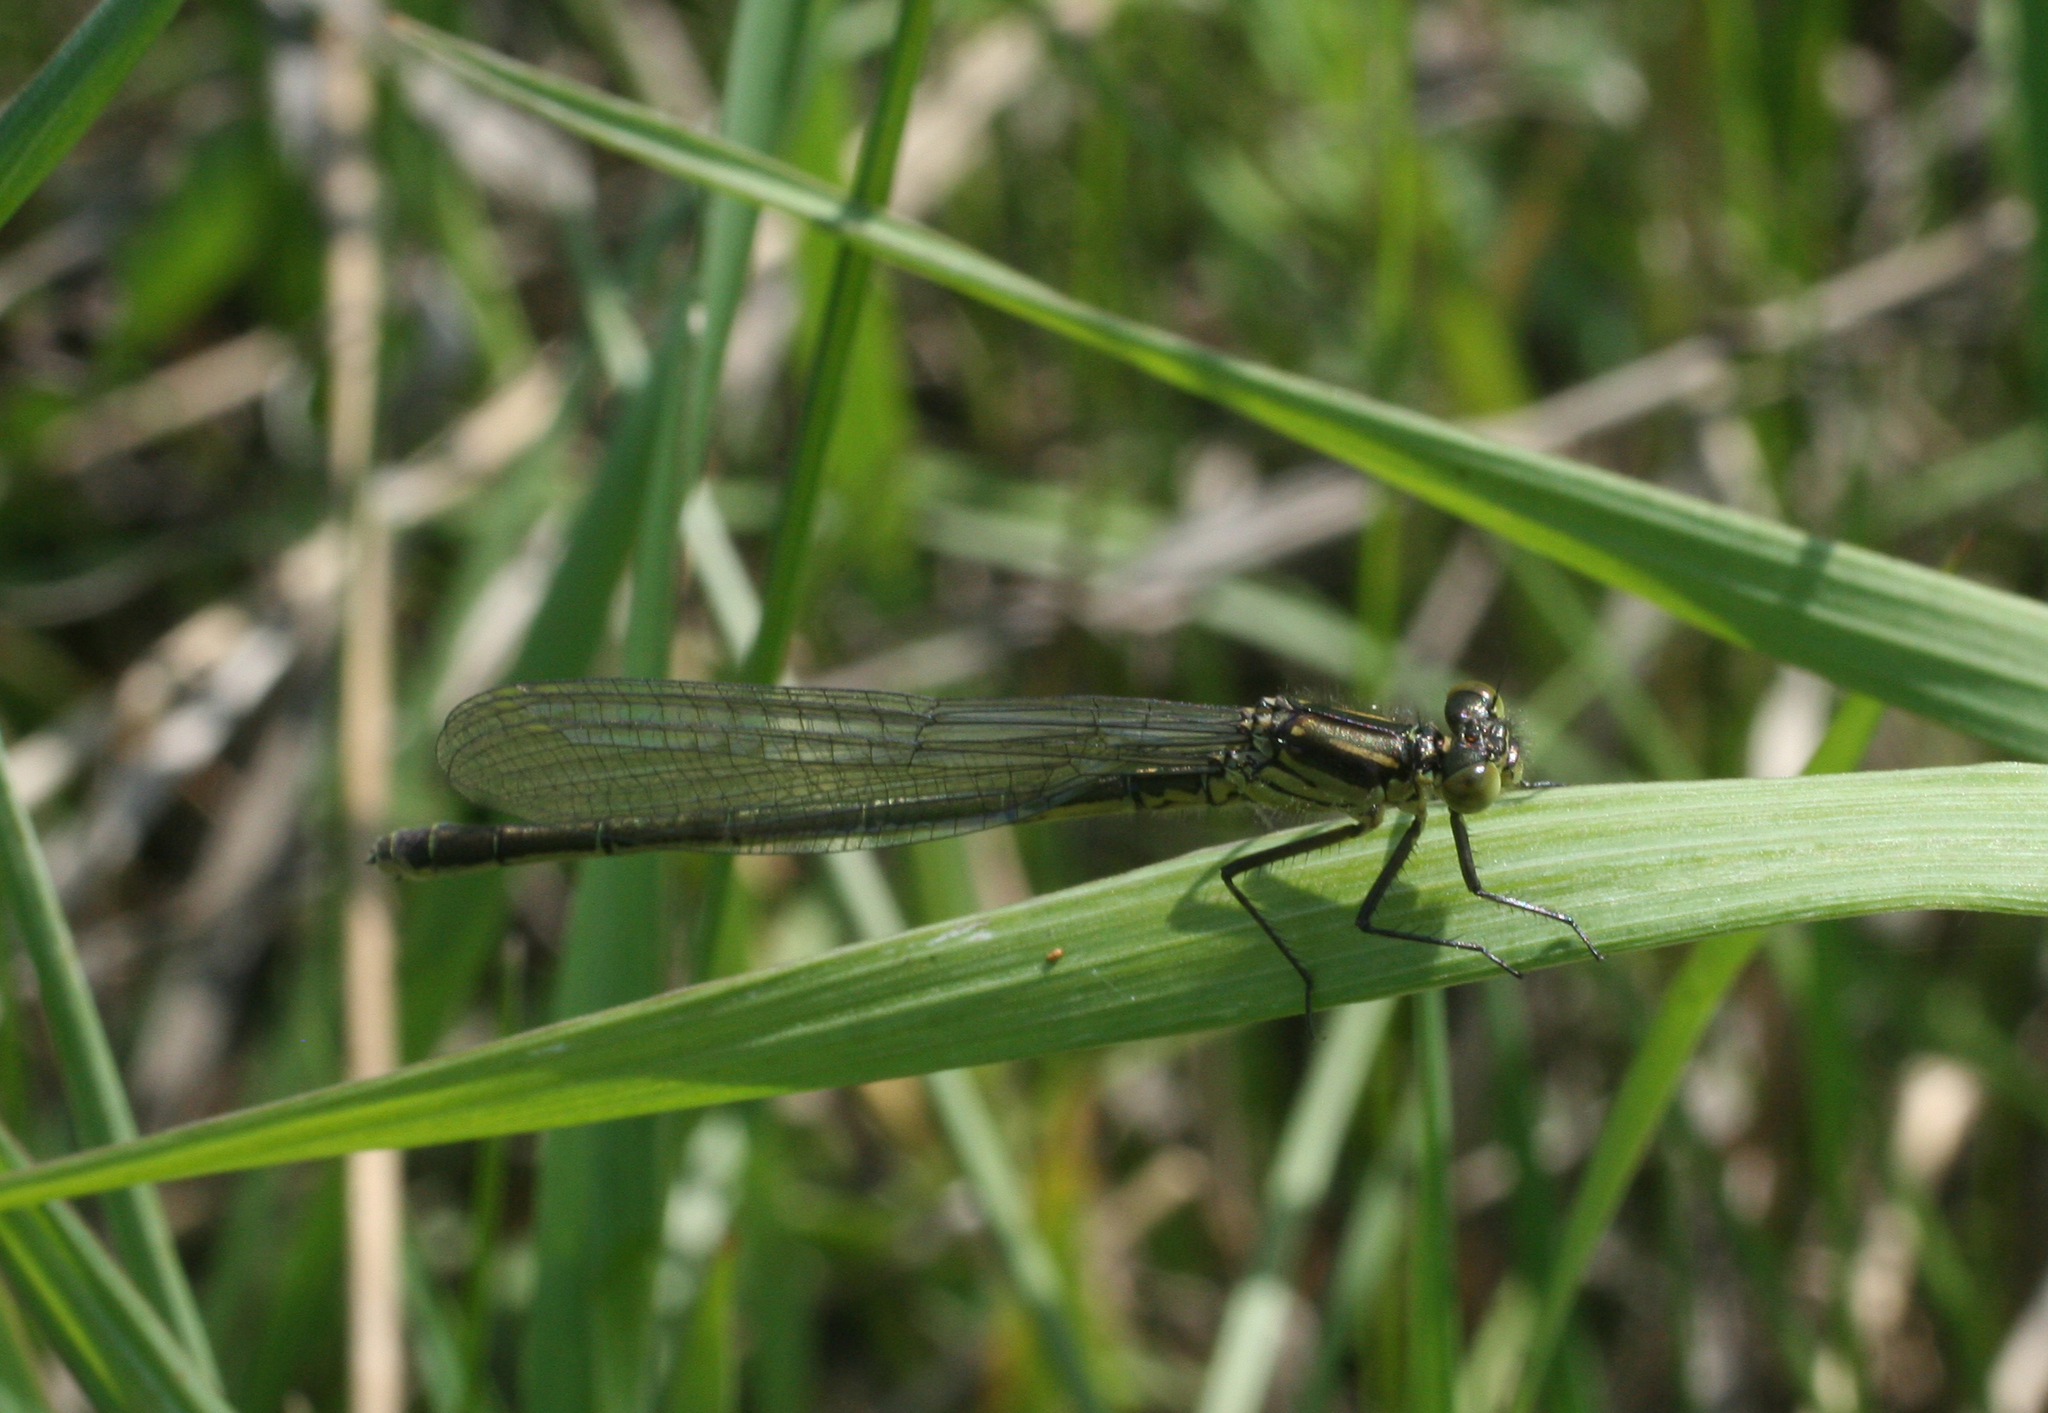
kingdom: Animalia
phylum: Arthropoda
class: Insecta
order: Odonata
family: Coenagrionidae
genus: Erythromma
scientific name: Erythromma najas
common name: Red-eyed damselfly
